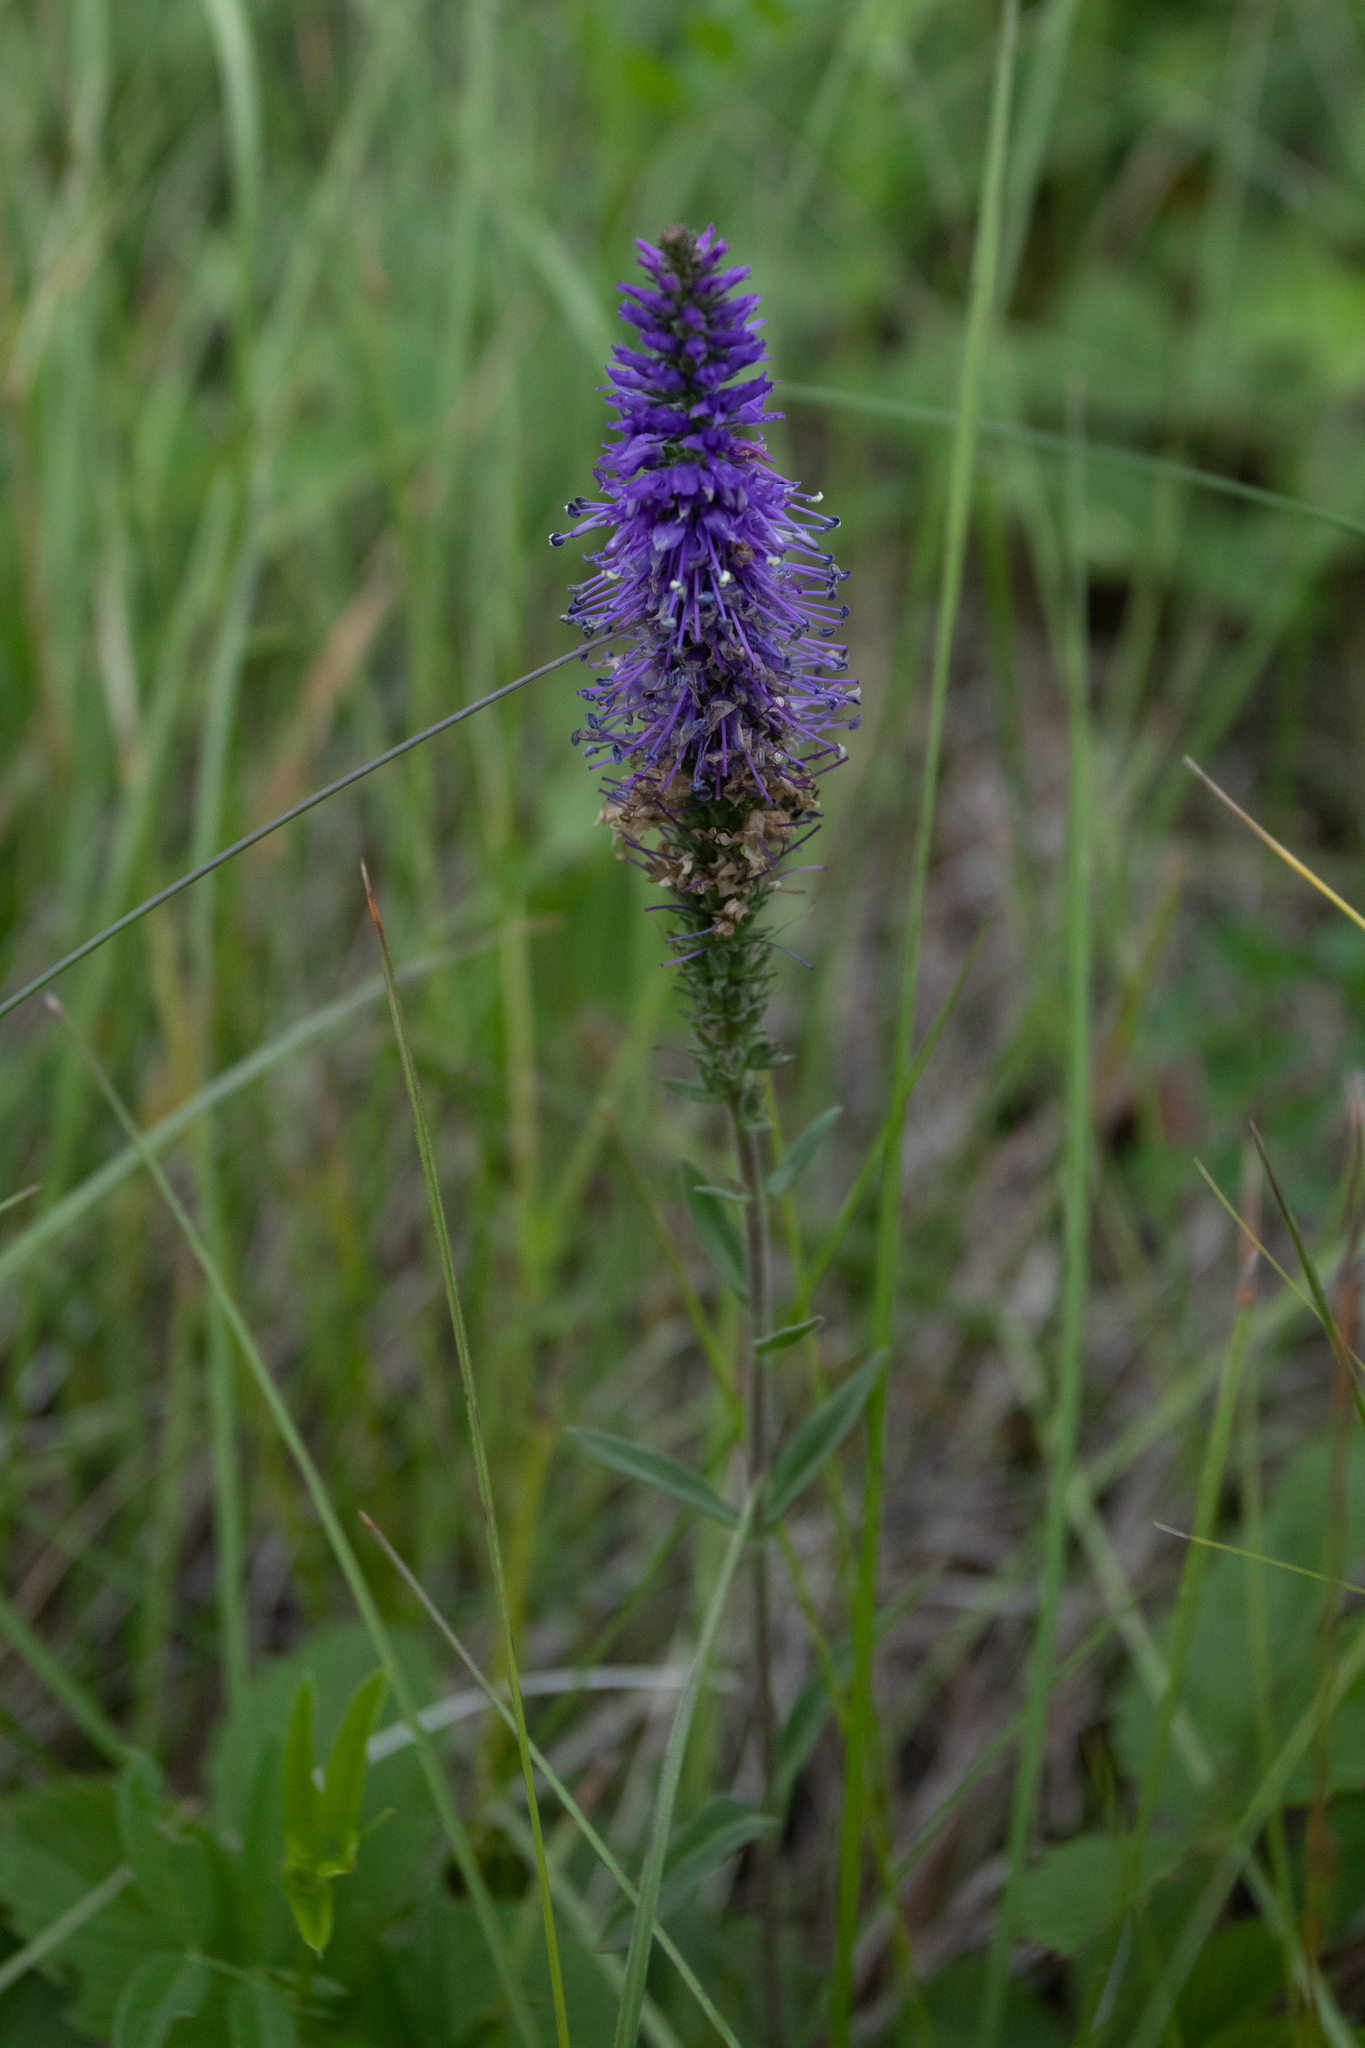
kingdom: Plantae
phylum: Tracheophyta
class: Magnoliopsida
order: Lamiales
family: Plantaginaceae
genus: Veronica
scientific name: Veronica spicata
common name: Spiked speedwell
